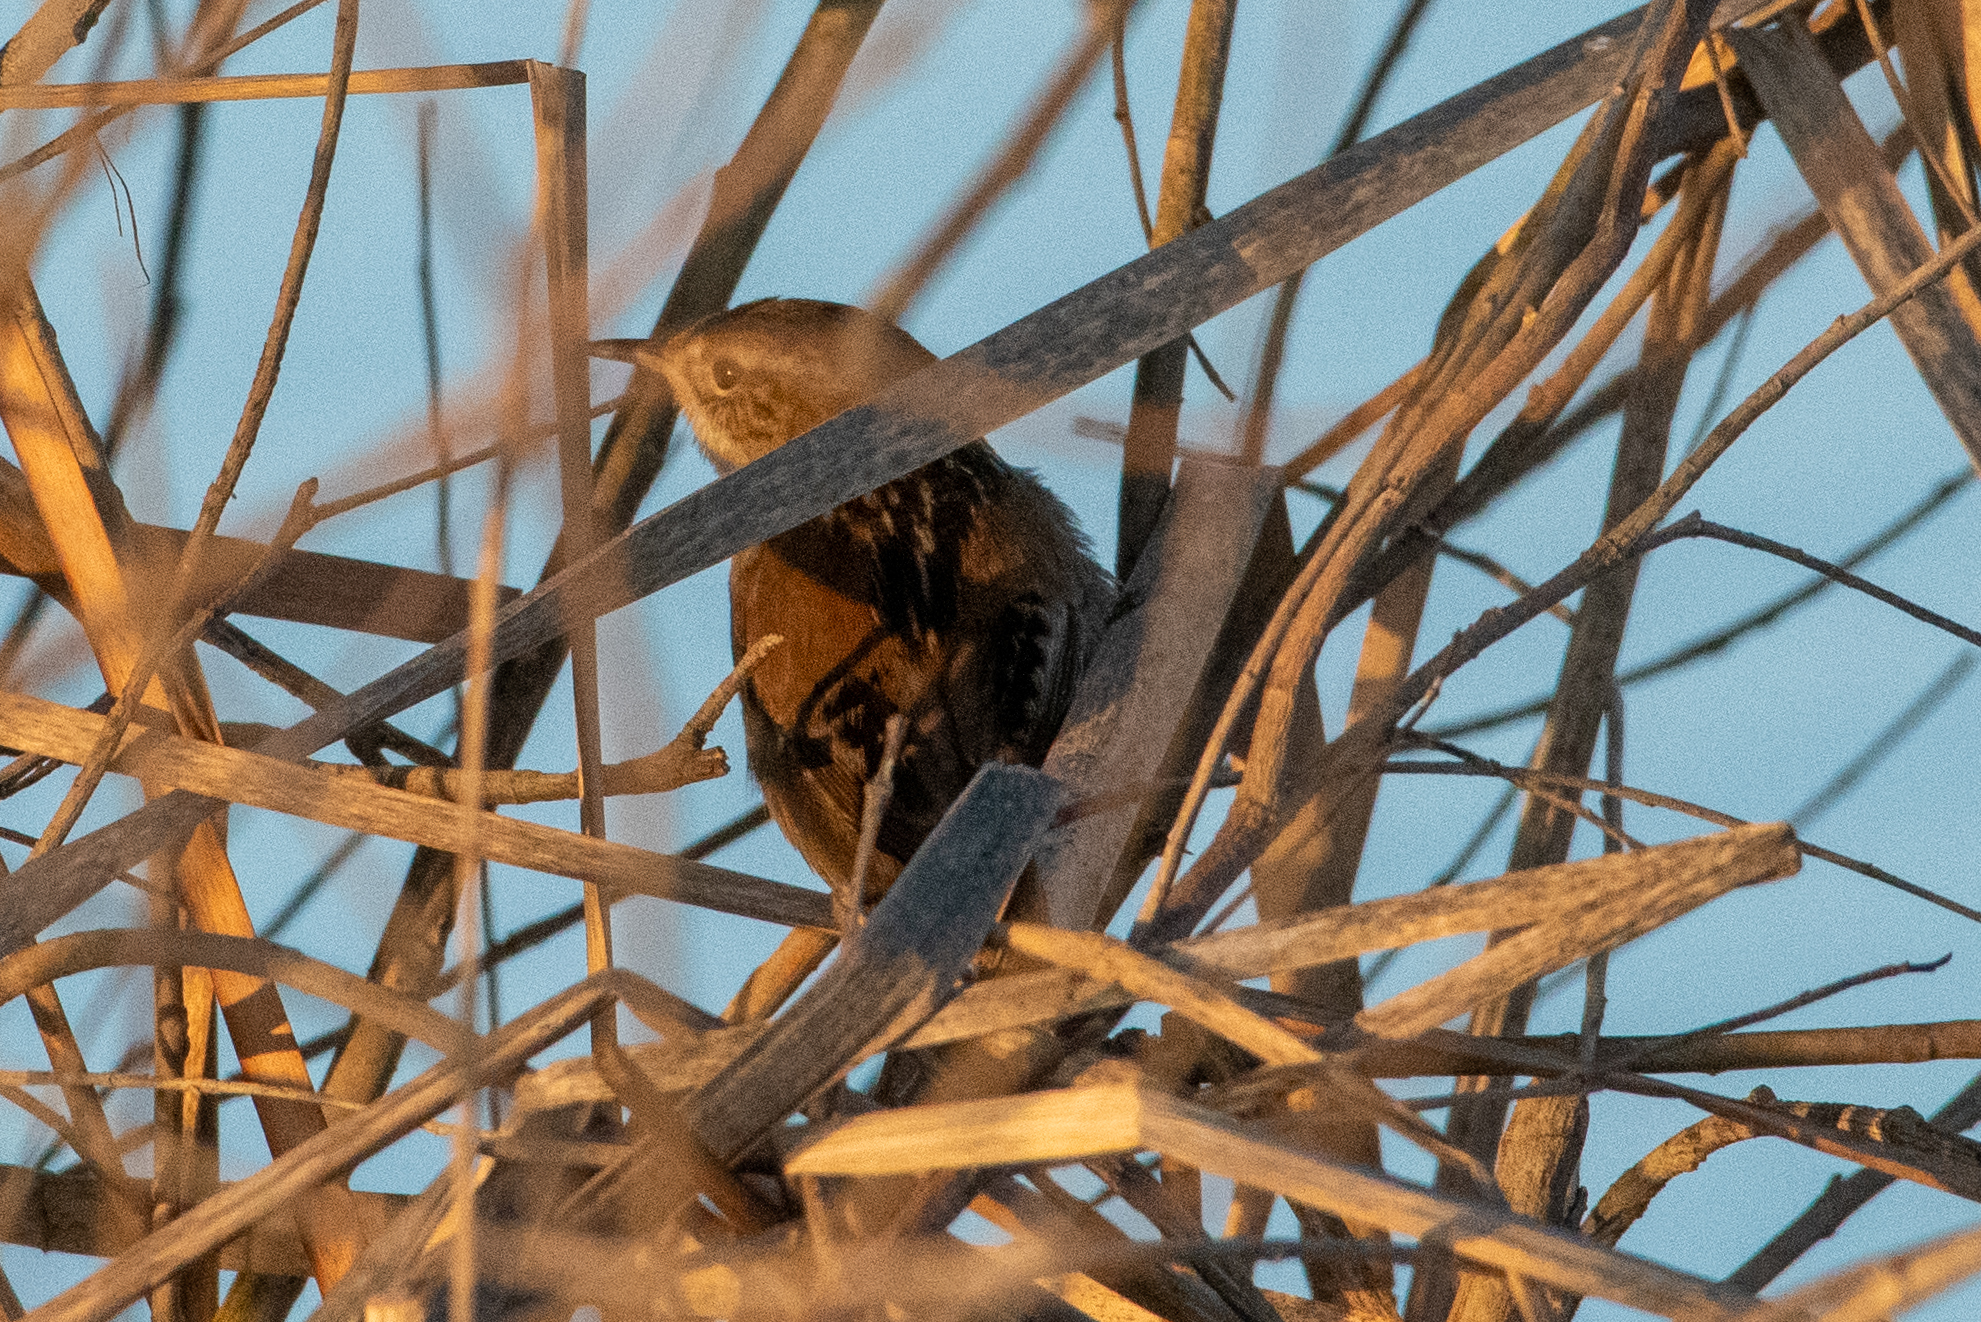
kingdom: Animalia
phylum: Chordata
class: Aves
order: Passeriformes
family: Troglodytidae
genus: Cistothorus
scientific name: Cistothorus palustris
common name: Marsh wren
